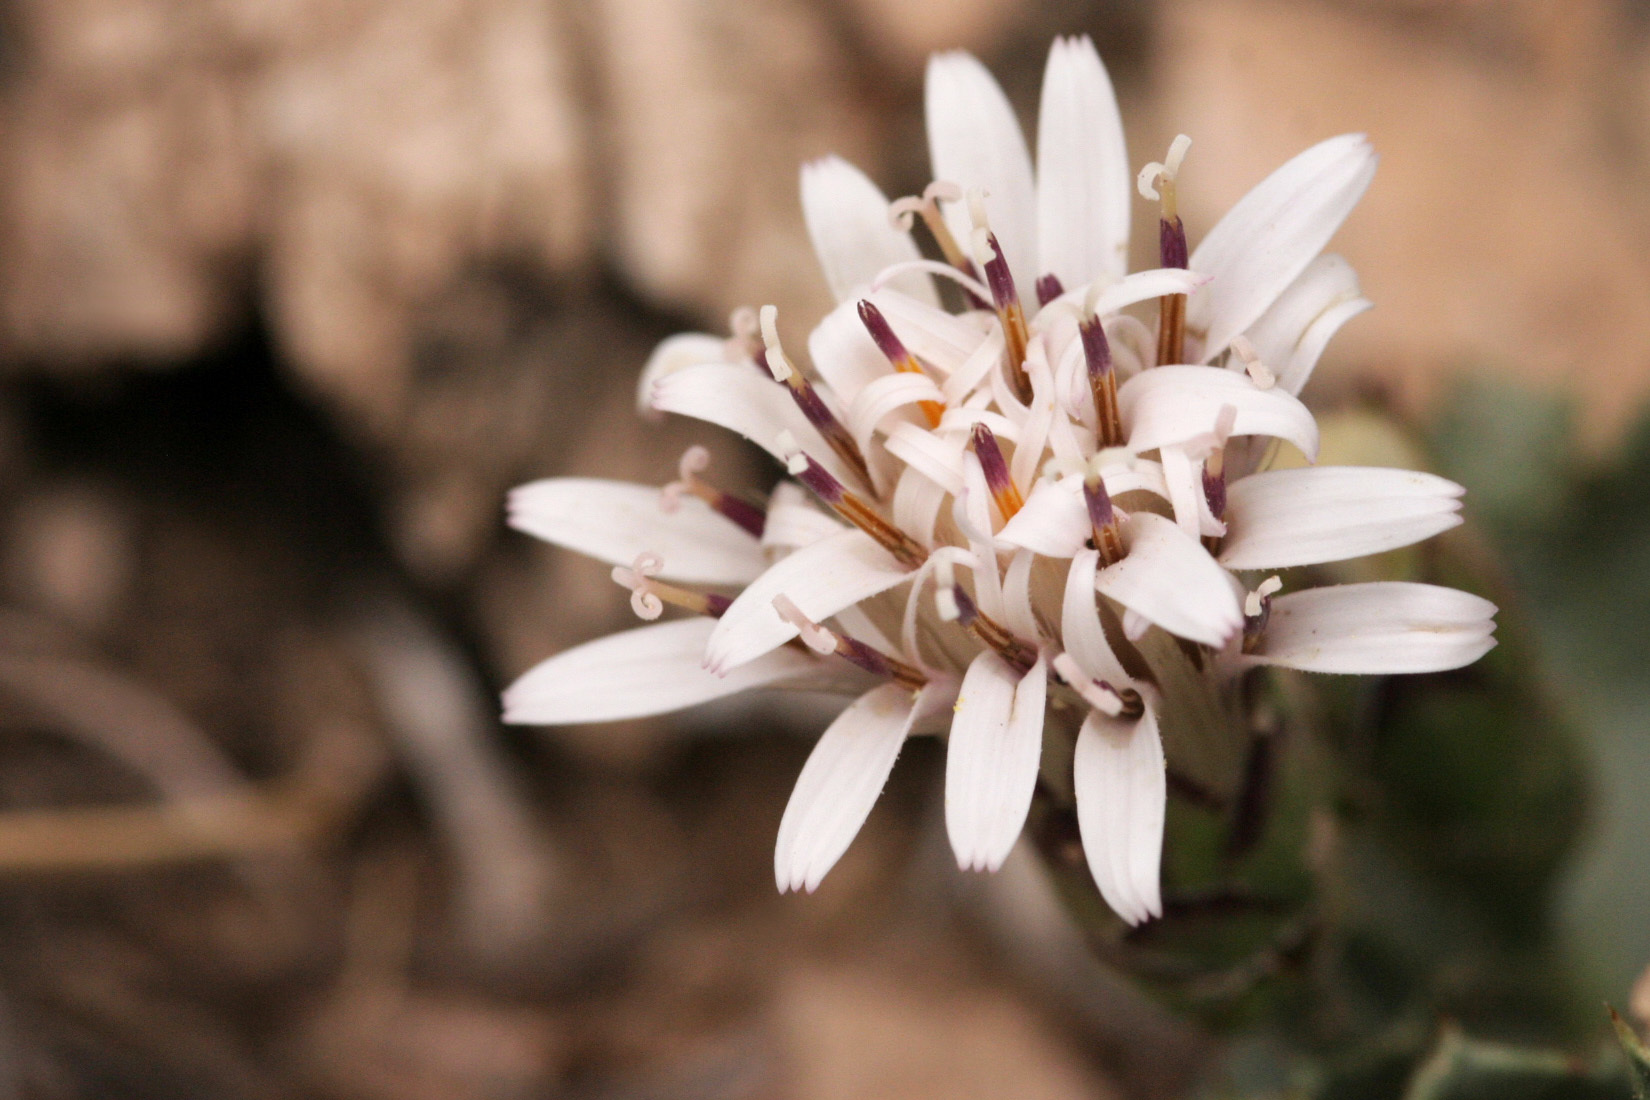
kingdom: Plantae
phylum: Tracheophyta
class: Magnoliopsida
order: Asterales
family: Asteraceae
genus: Acourtia
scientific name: Acourtia nana
